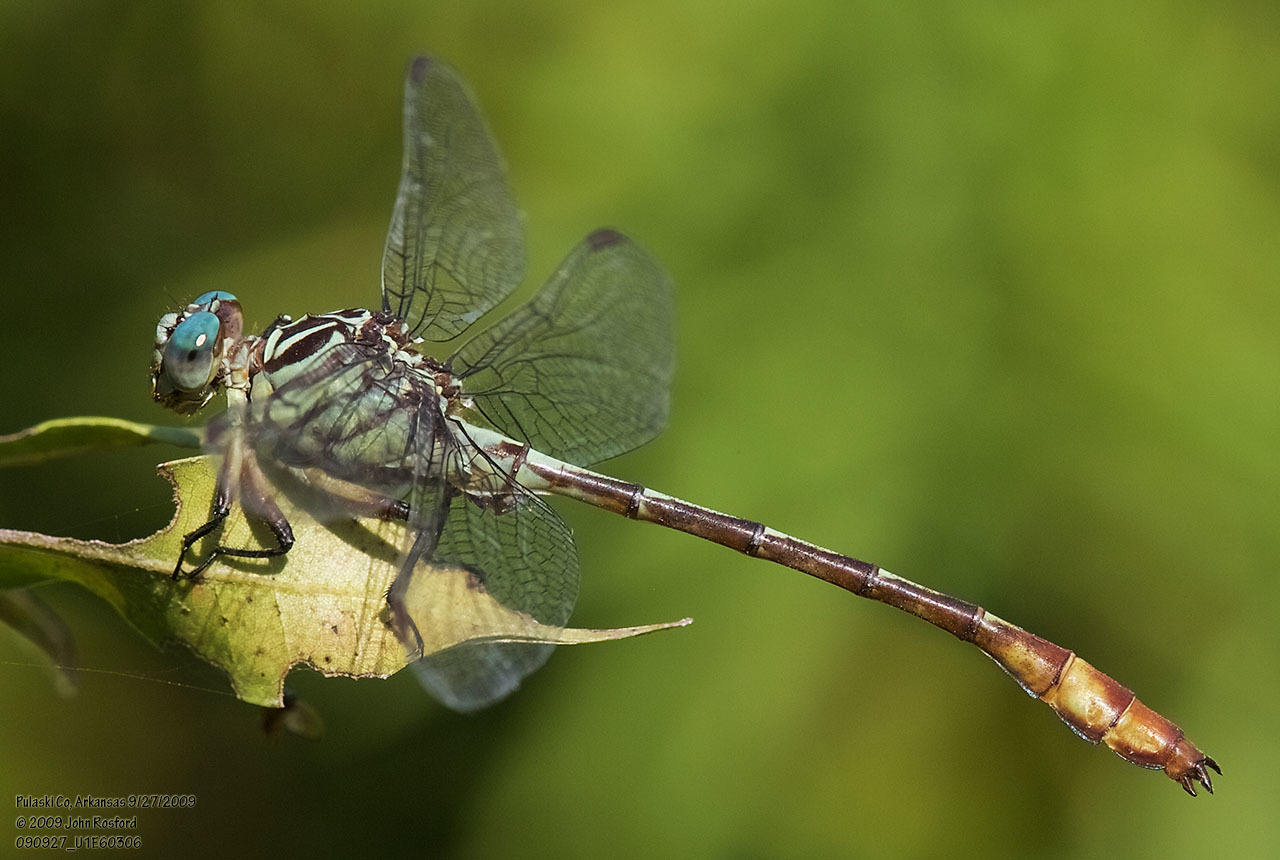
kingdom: Animalia
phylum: Arthropoda
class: Insecta
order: Odonata
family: Gomphidae
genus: Stylurus
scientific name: Stylurus plagiatus
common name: Russet-tipped clubtail
